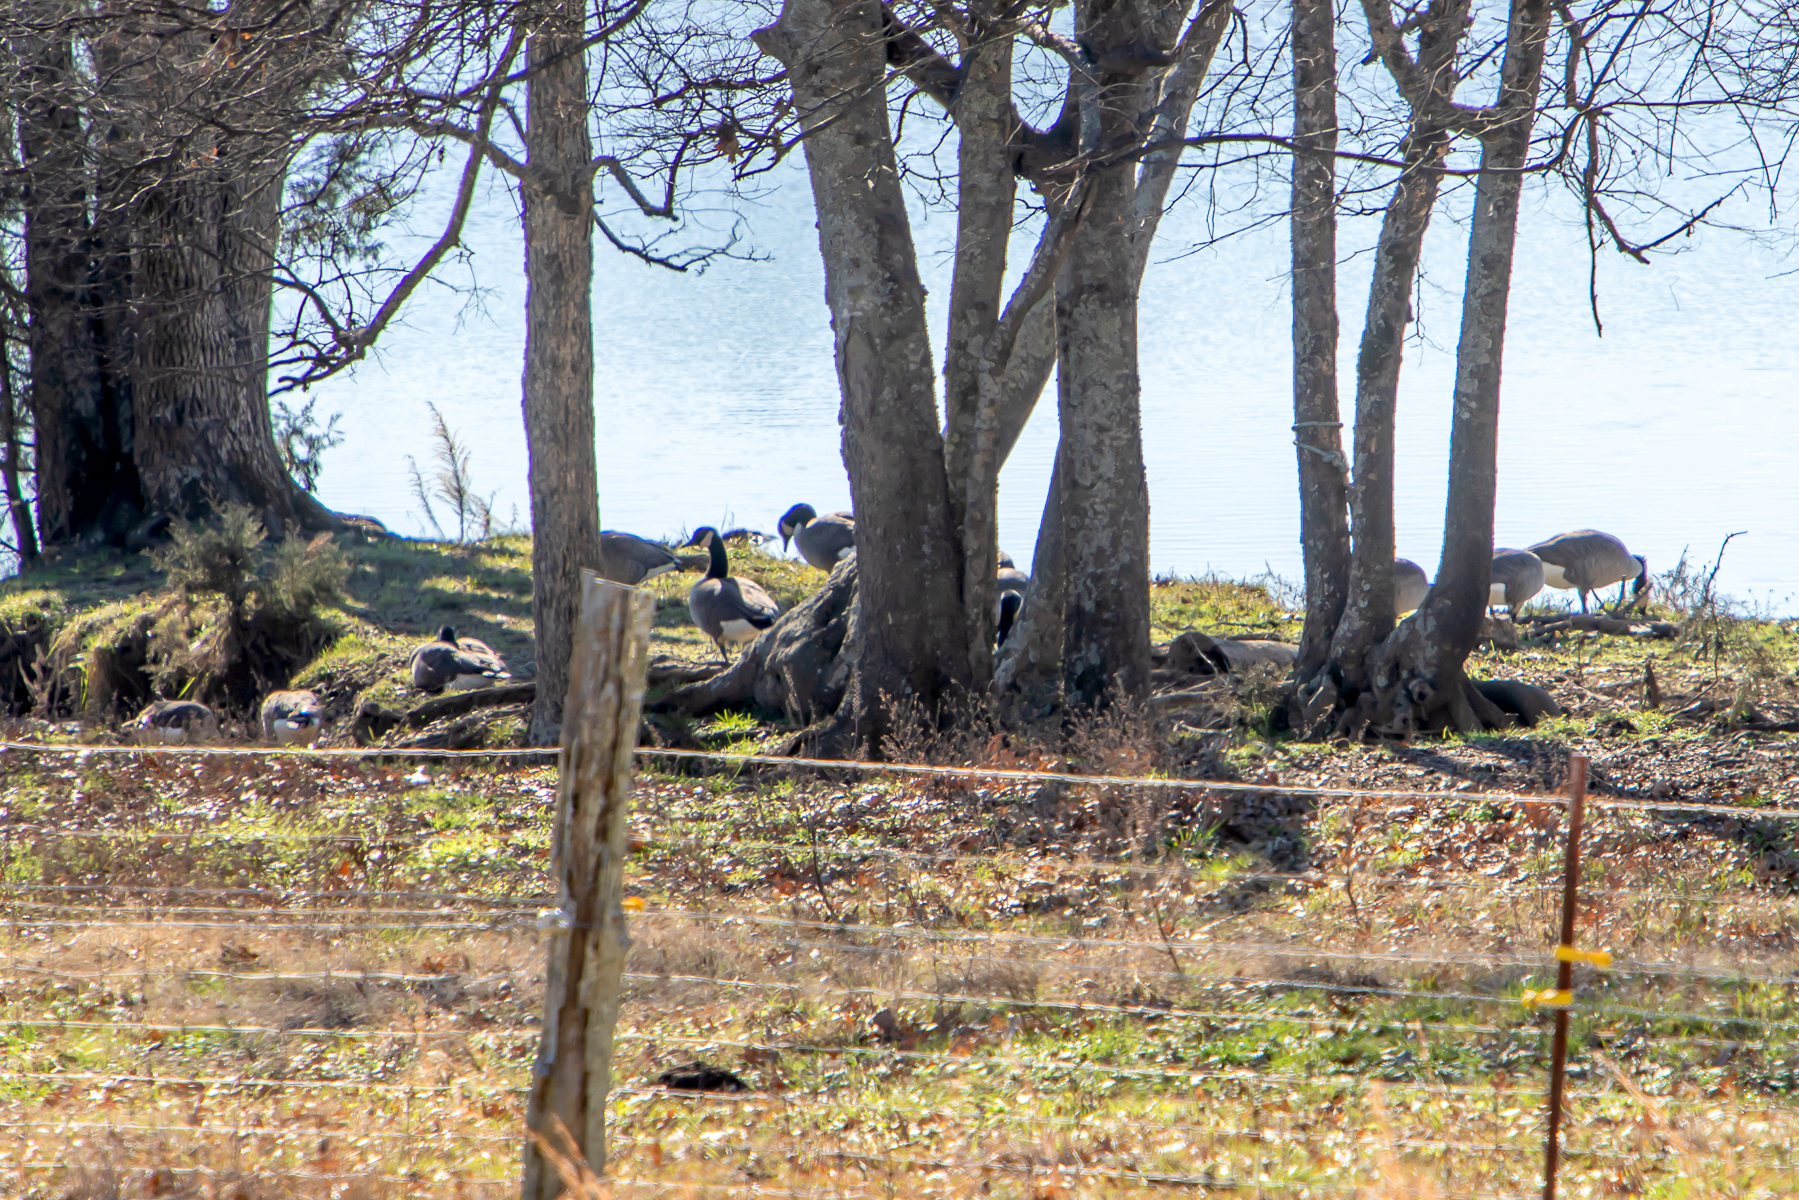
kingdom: Animalia
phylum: Chordata
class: Aves
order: Anseriformes
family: Anatidae
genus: Branta
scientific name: Branta canadensis
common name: Canada goose
